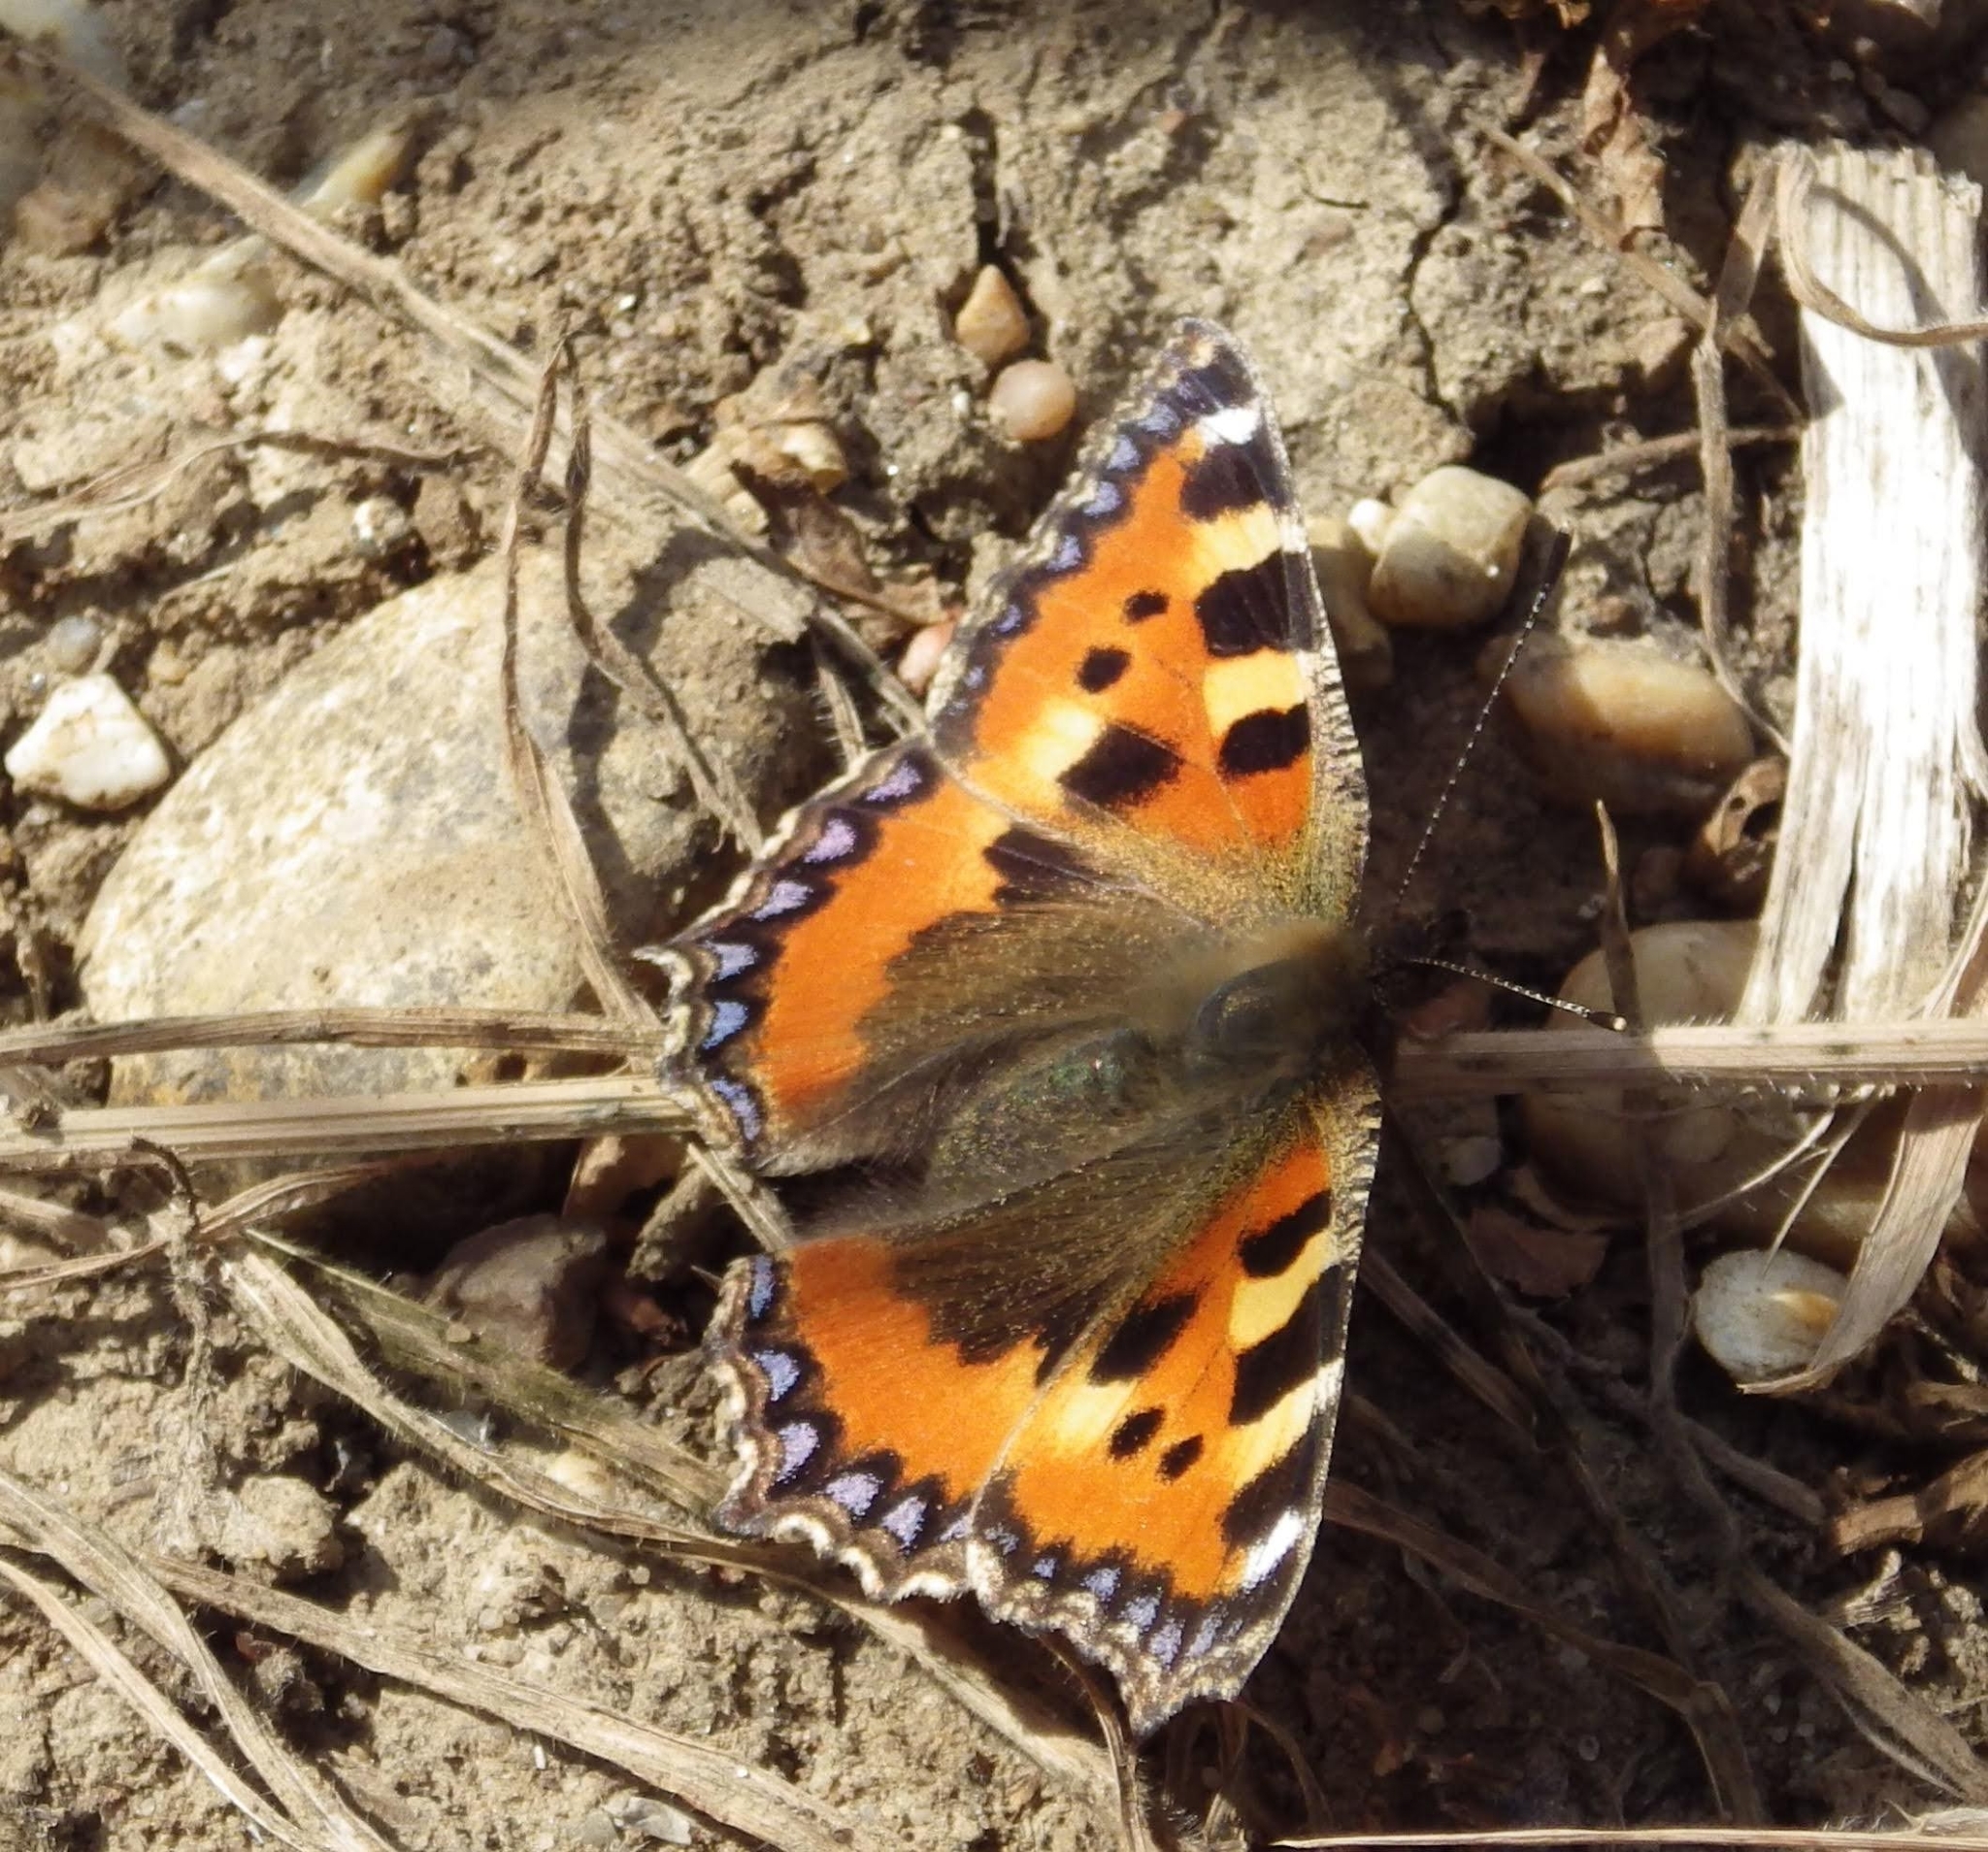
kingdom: Animalia
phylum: Arthropoda
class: Insecta
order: Lepidoptera
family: Nymphalidae
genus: Aglais
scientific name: Aglais urticae
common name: Small tortoiseshell
